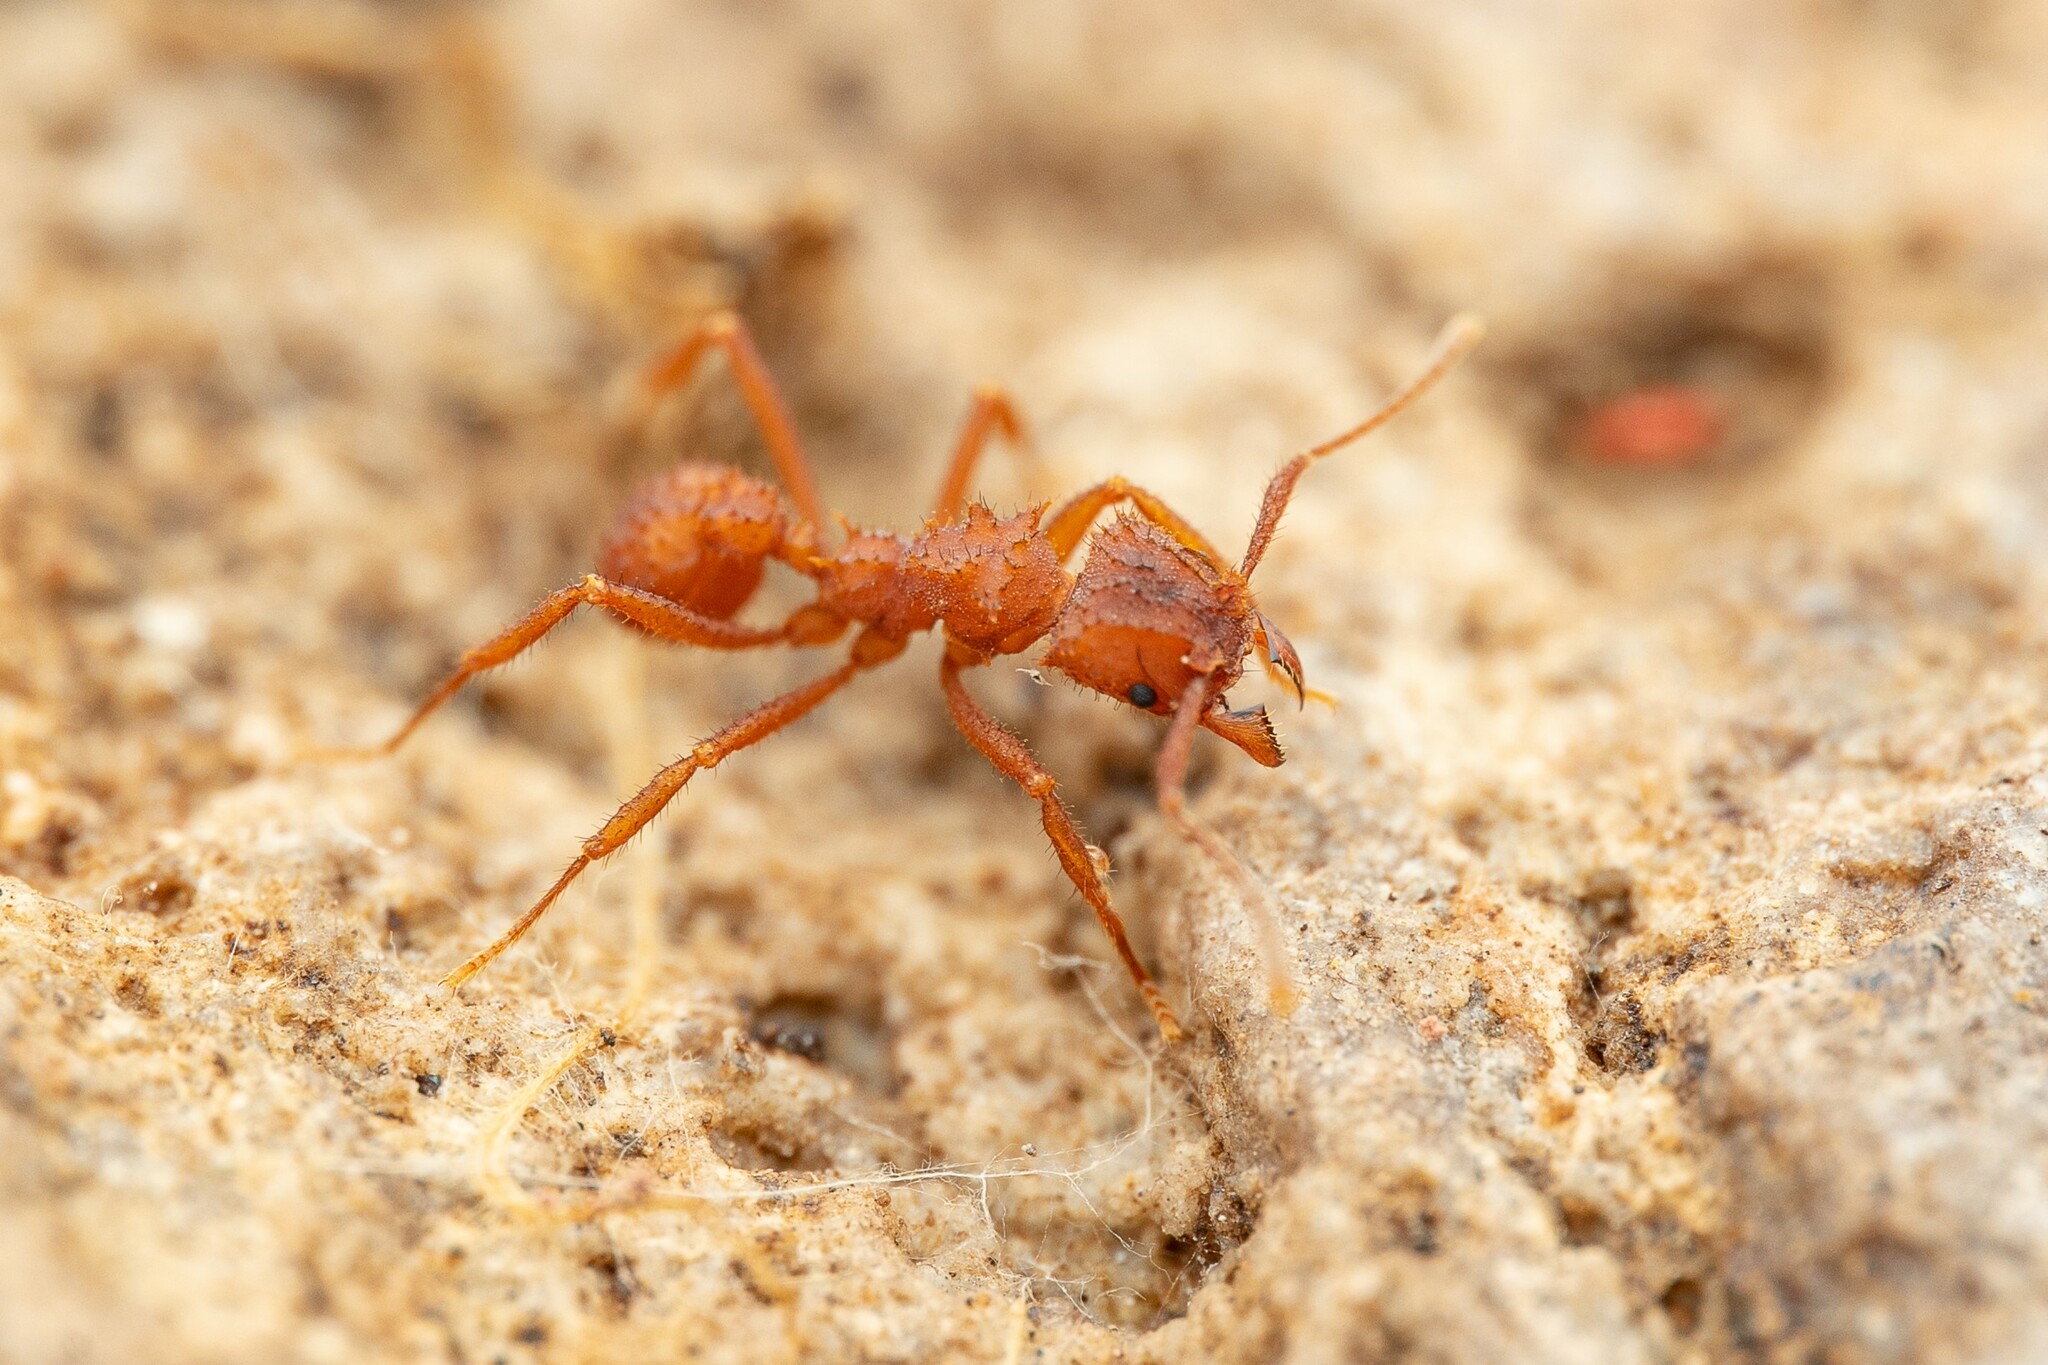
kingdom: Animalia
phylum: Arthropoda
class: Insecta
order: Hymenoptera
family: Formicidae
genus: Trachymyrmex
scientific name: Trachymyrmex arizonensis
